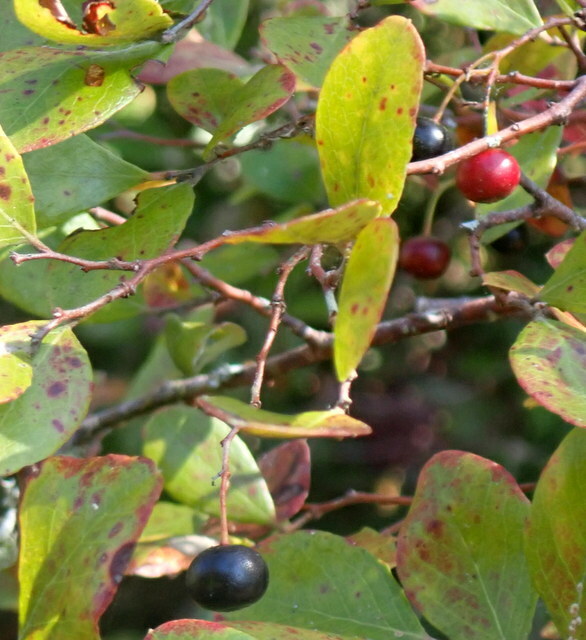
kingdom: Plantae
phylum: Tracheophyta
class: Magnoliopsida
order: Ericales
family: Ericaceae
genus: Vaccinium
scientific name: Vaccinium arboreum
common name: Farkleberry
